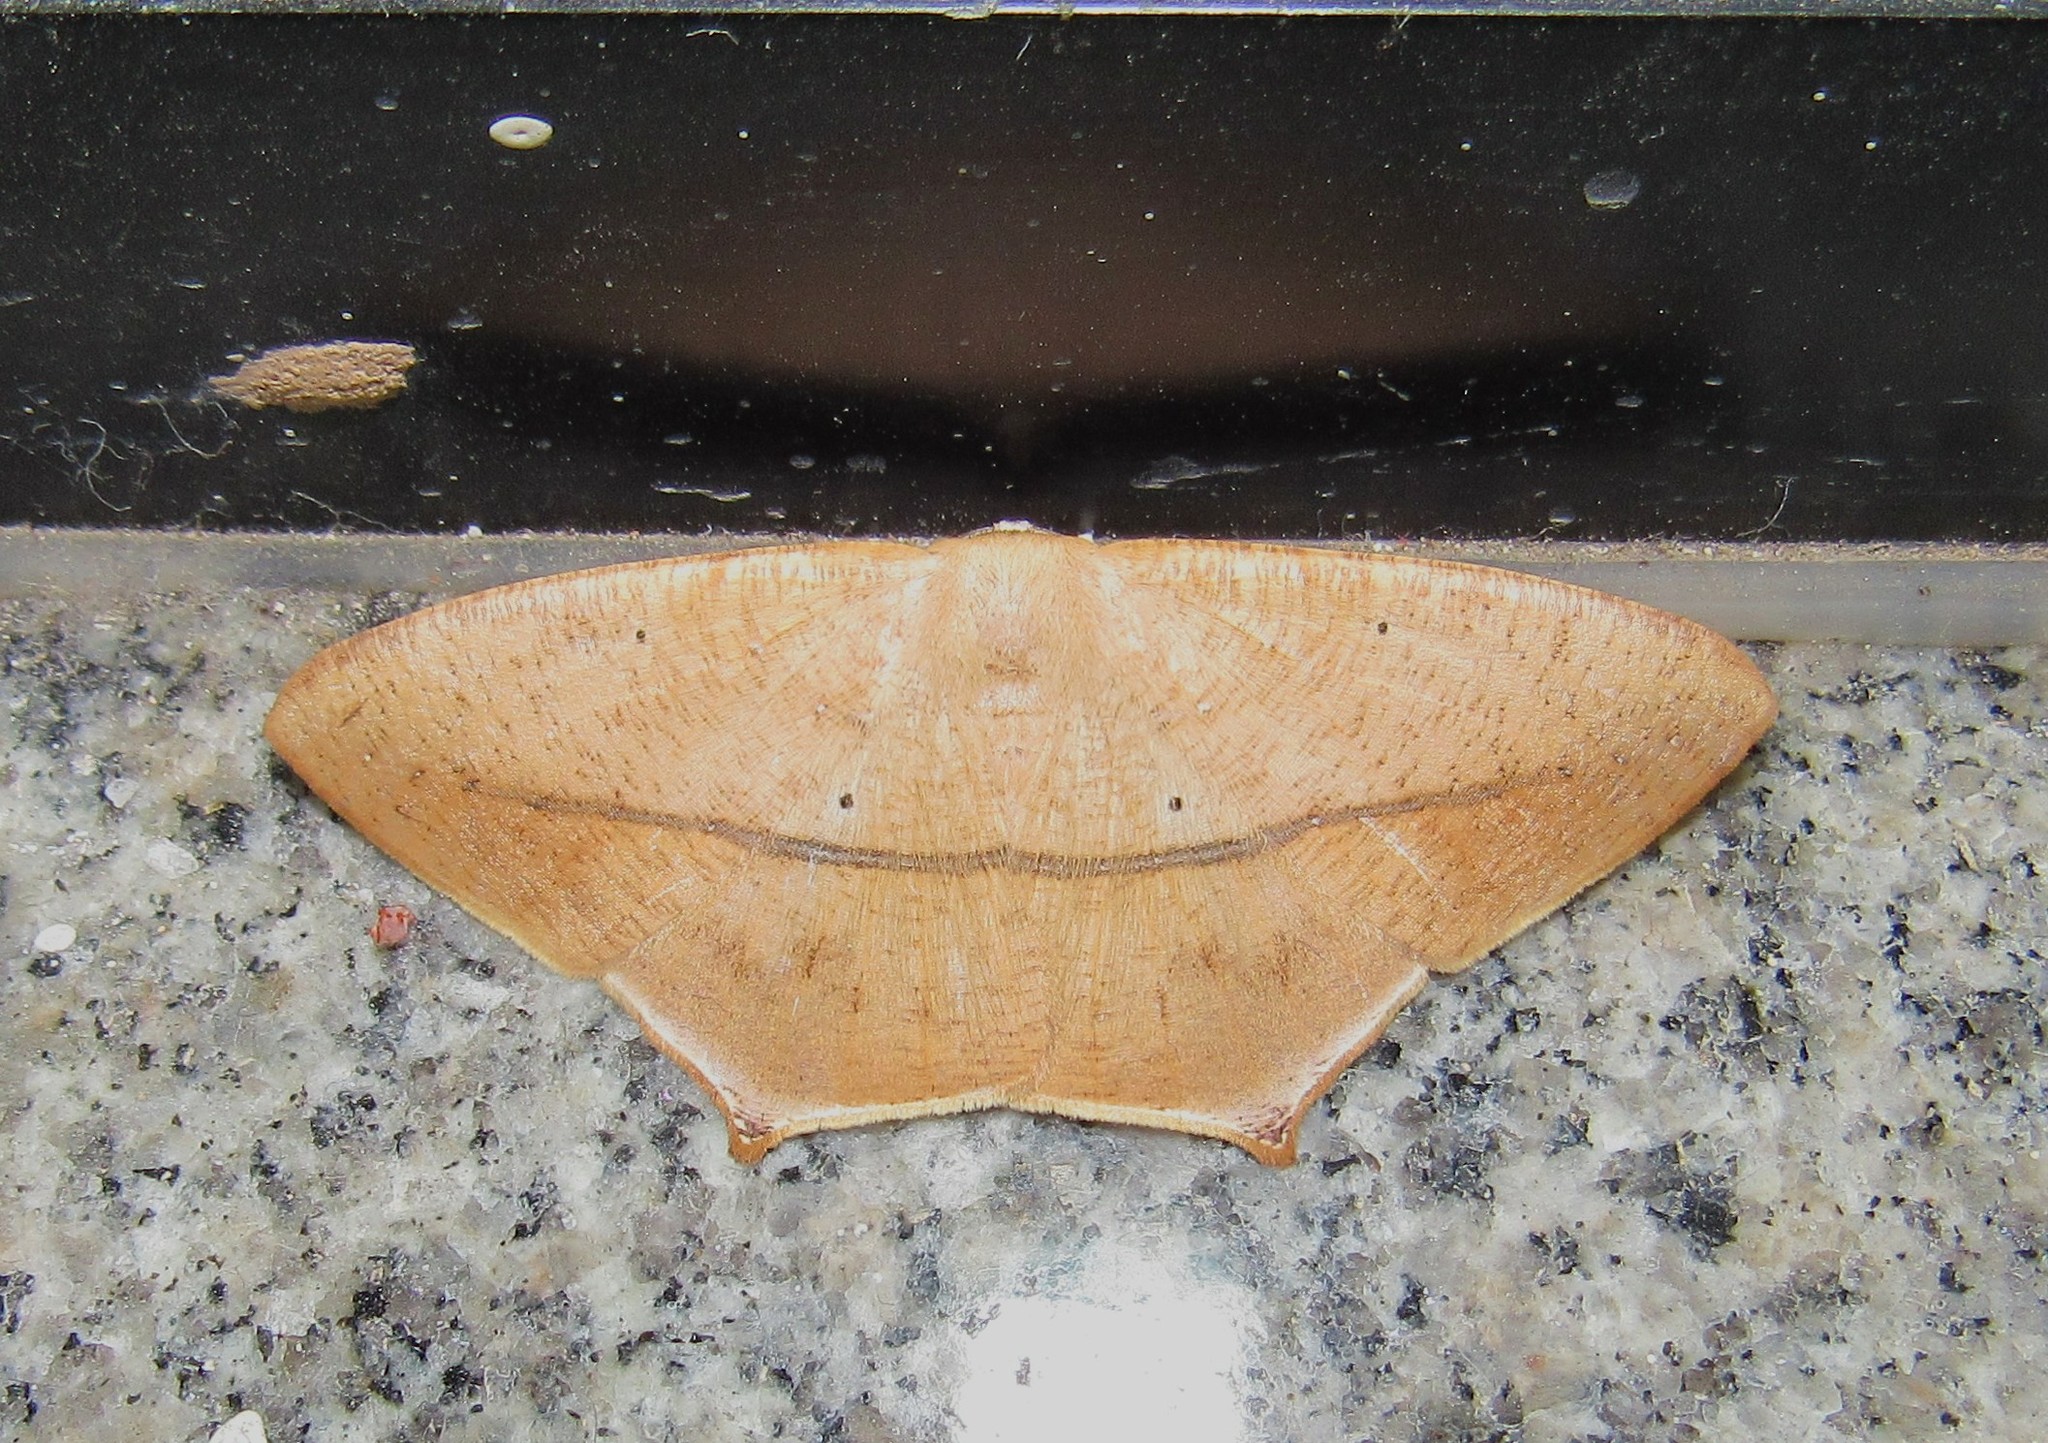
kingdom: Animalia
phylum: Arthropoda
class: Insecta
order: Lepidoptera
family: Geometridae
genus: Prochoerodes
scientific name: Prochoerodes tetragonata
